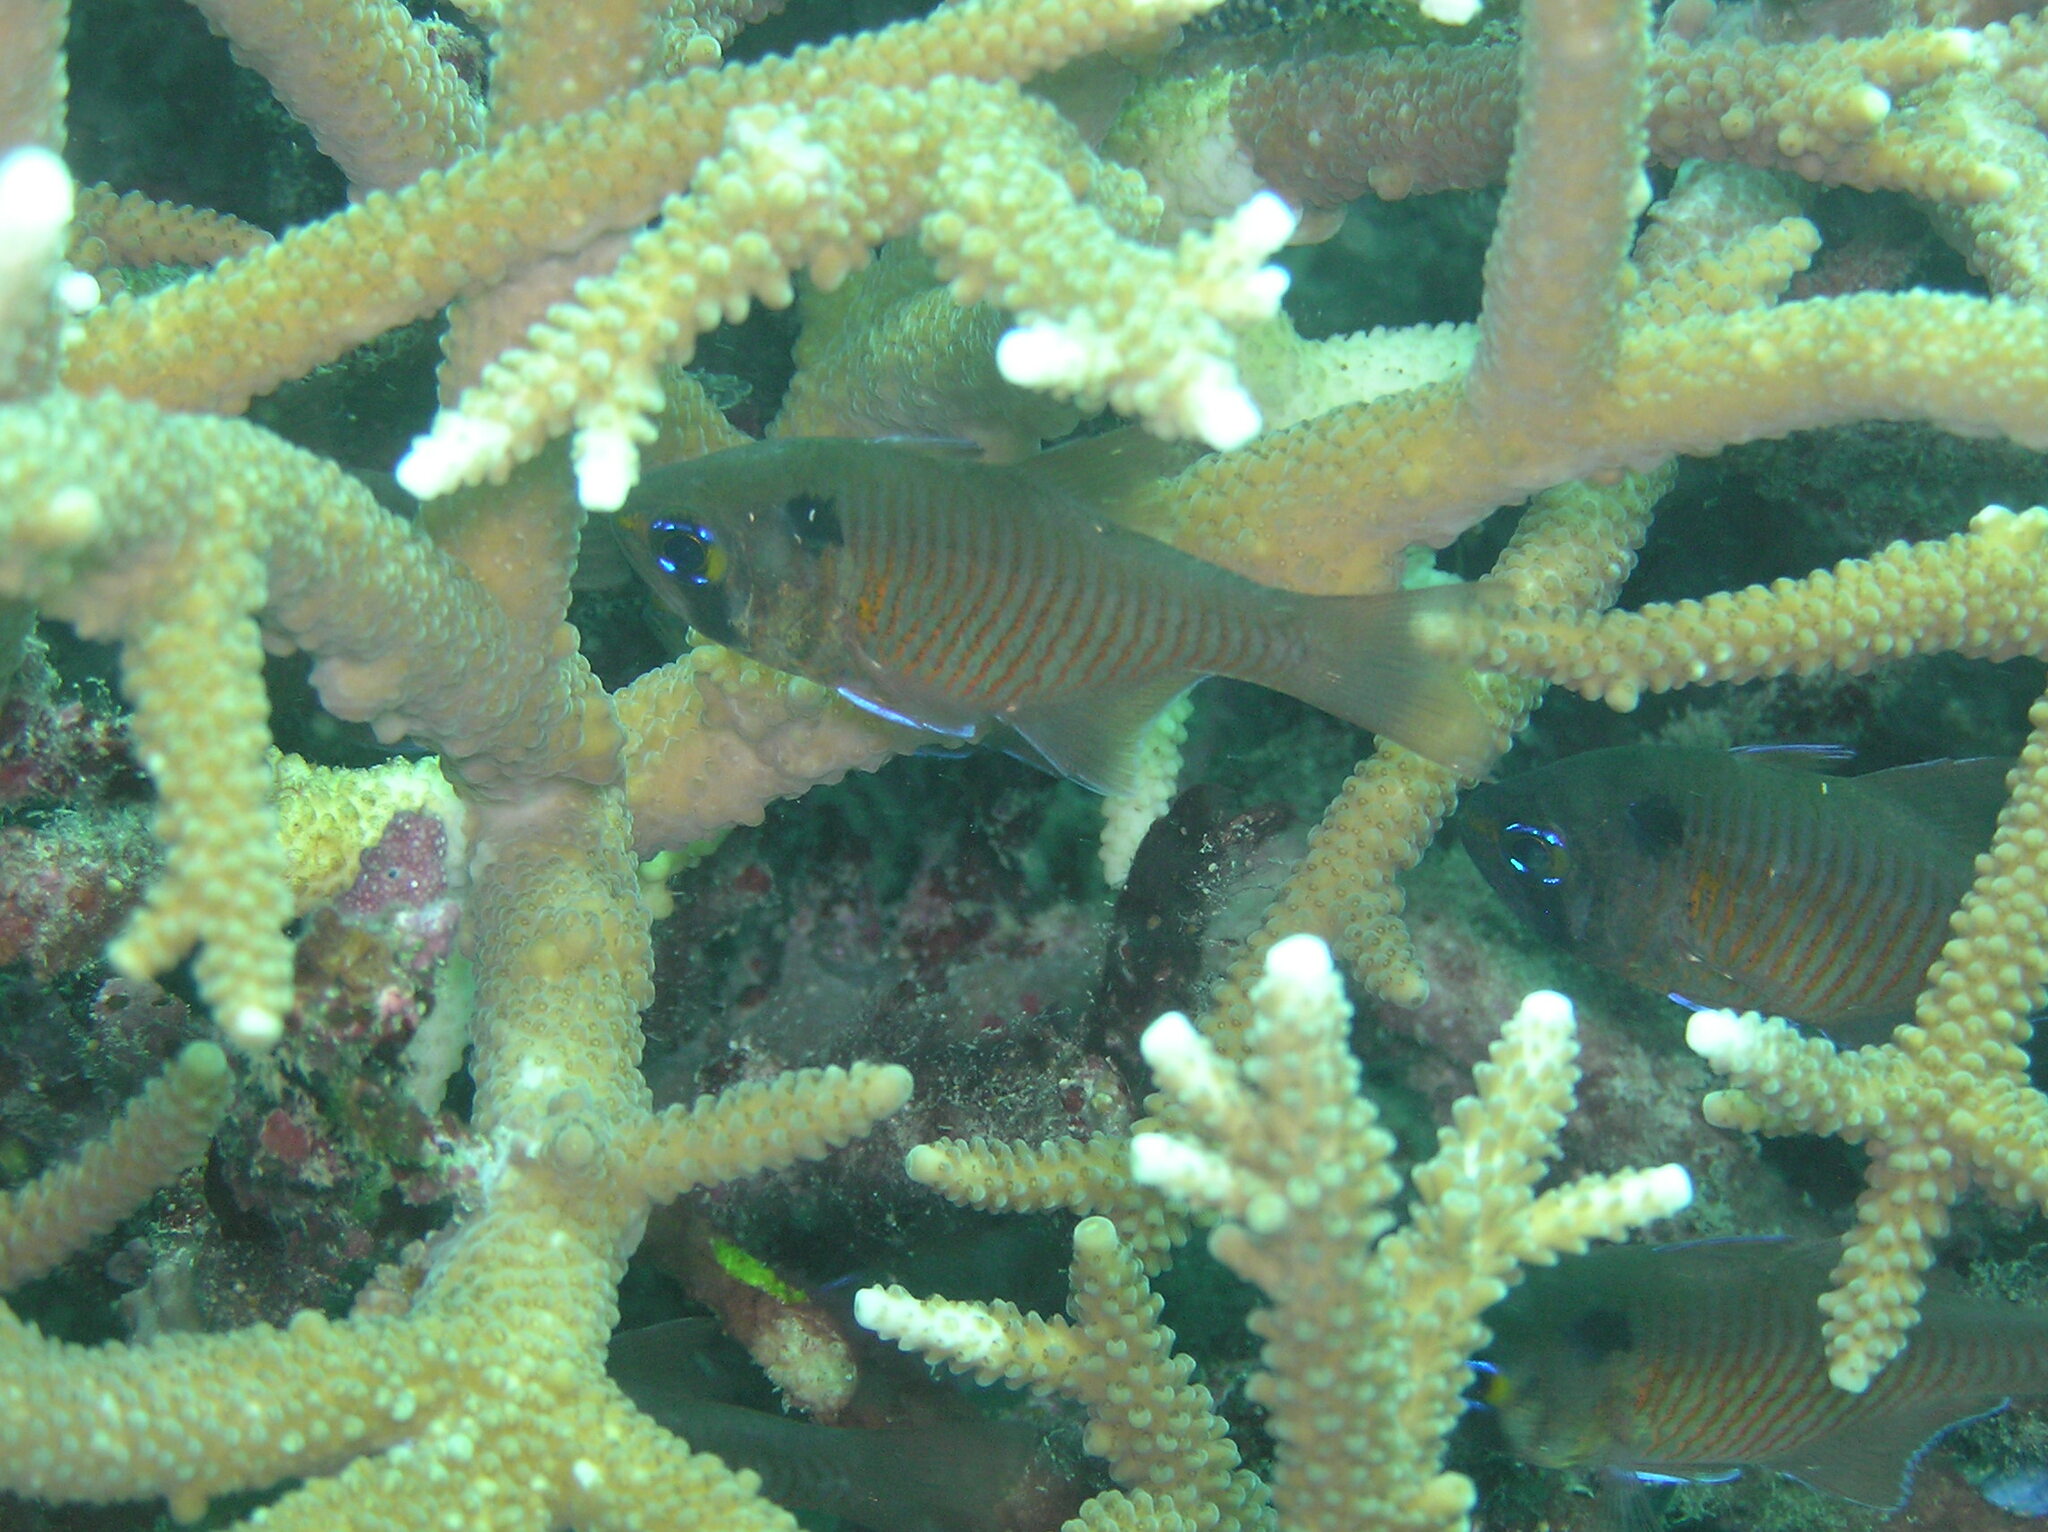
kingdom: Animalia
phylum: Chordata
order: Perciformes
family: Apogonidae
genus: Taeniamia
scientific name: Taeniamia melasma
